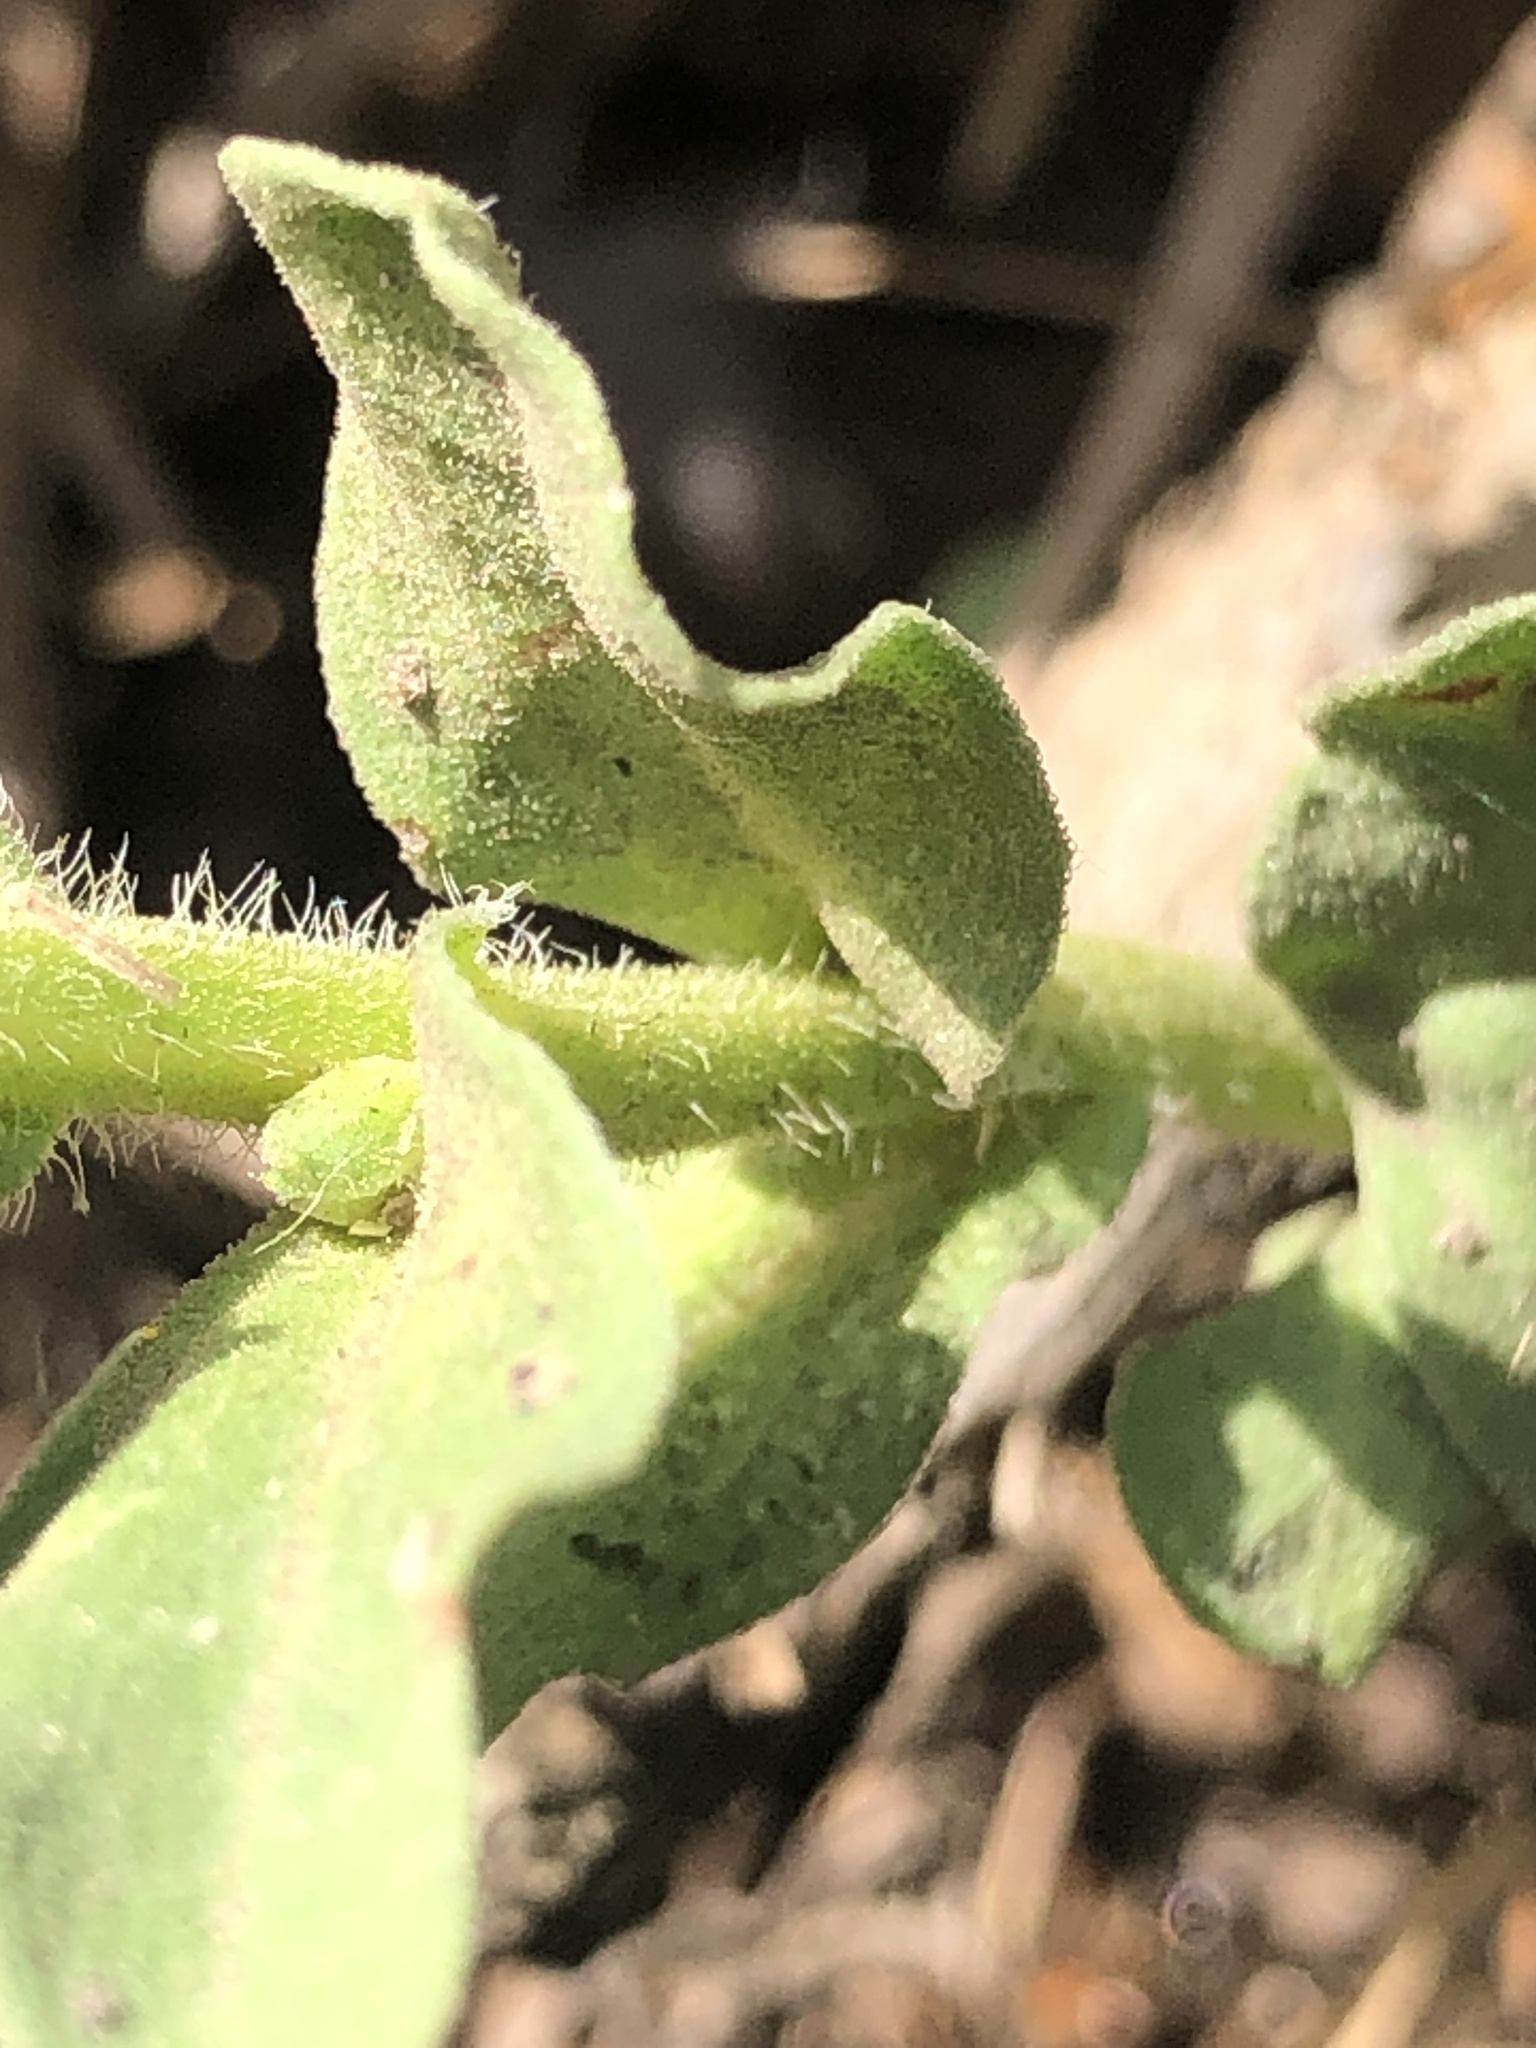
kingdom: Plantae
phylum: Tracheophyta
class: Magnoliopsida
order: Asterales
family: Asteraceae
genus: Erigeron
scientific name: Erigeron glaucus
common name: Seaside daisy
